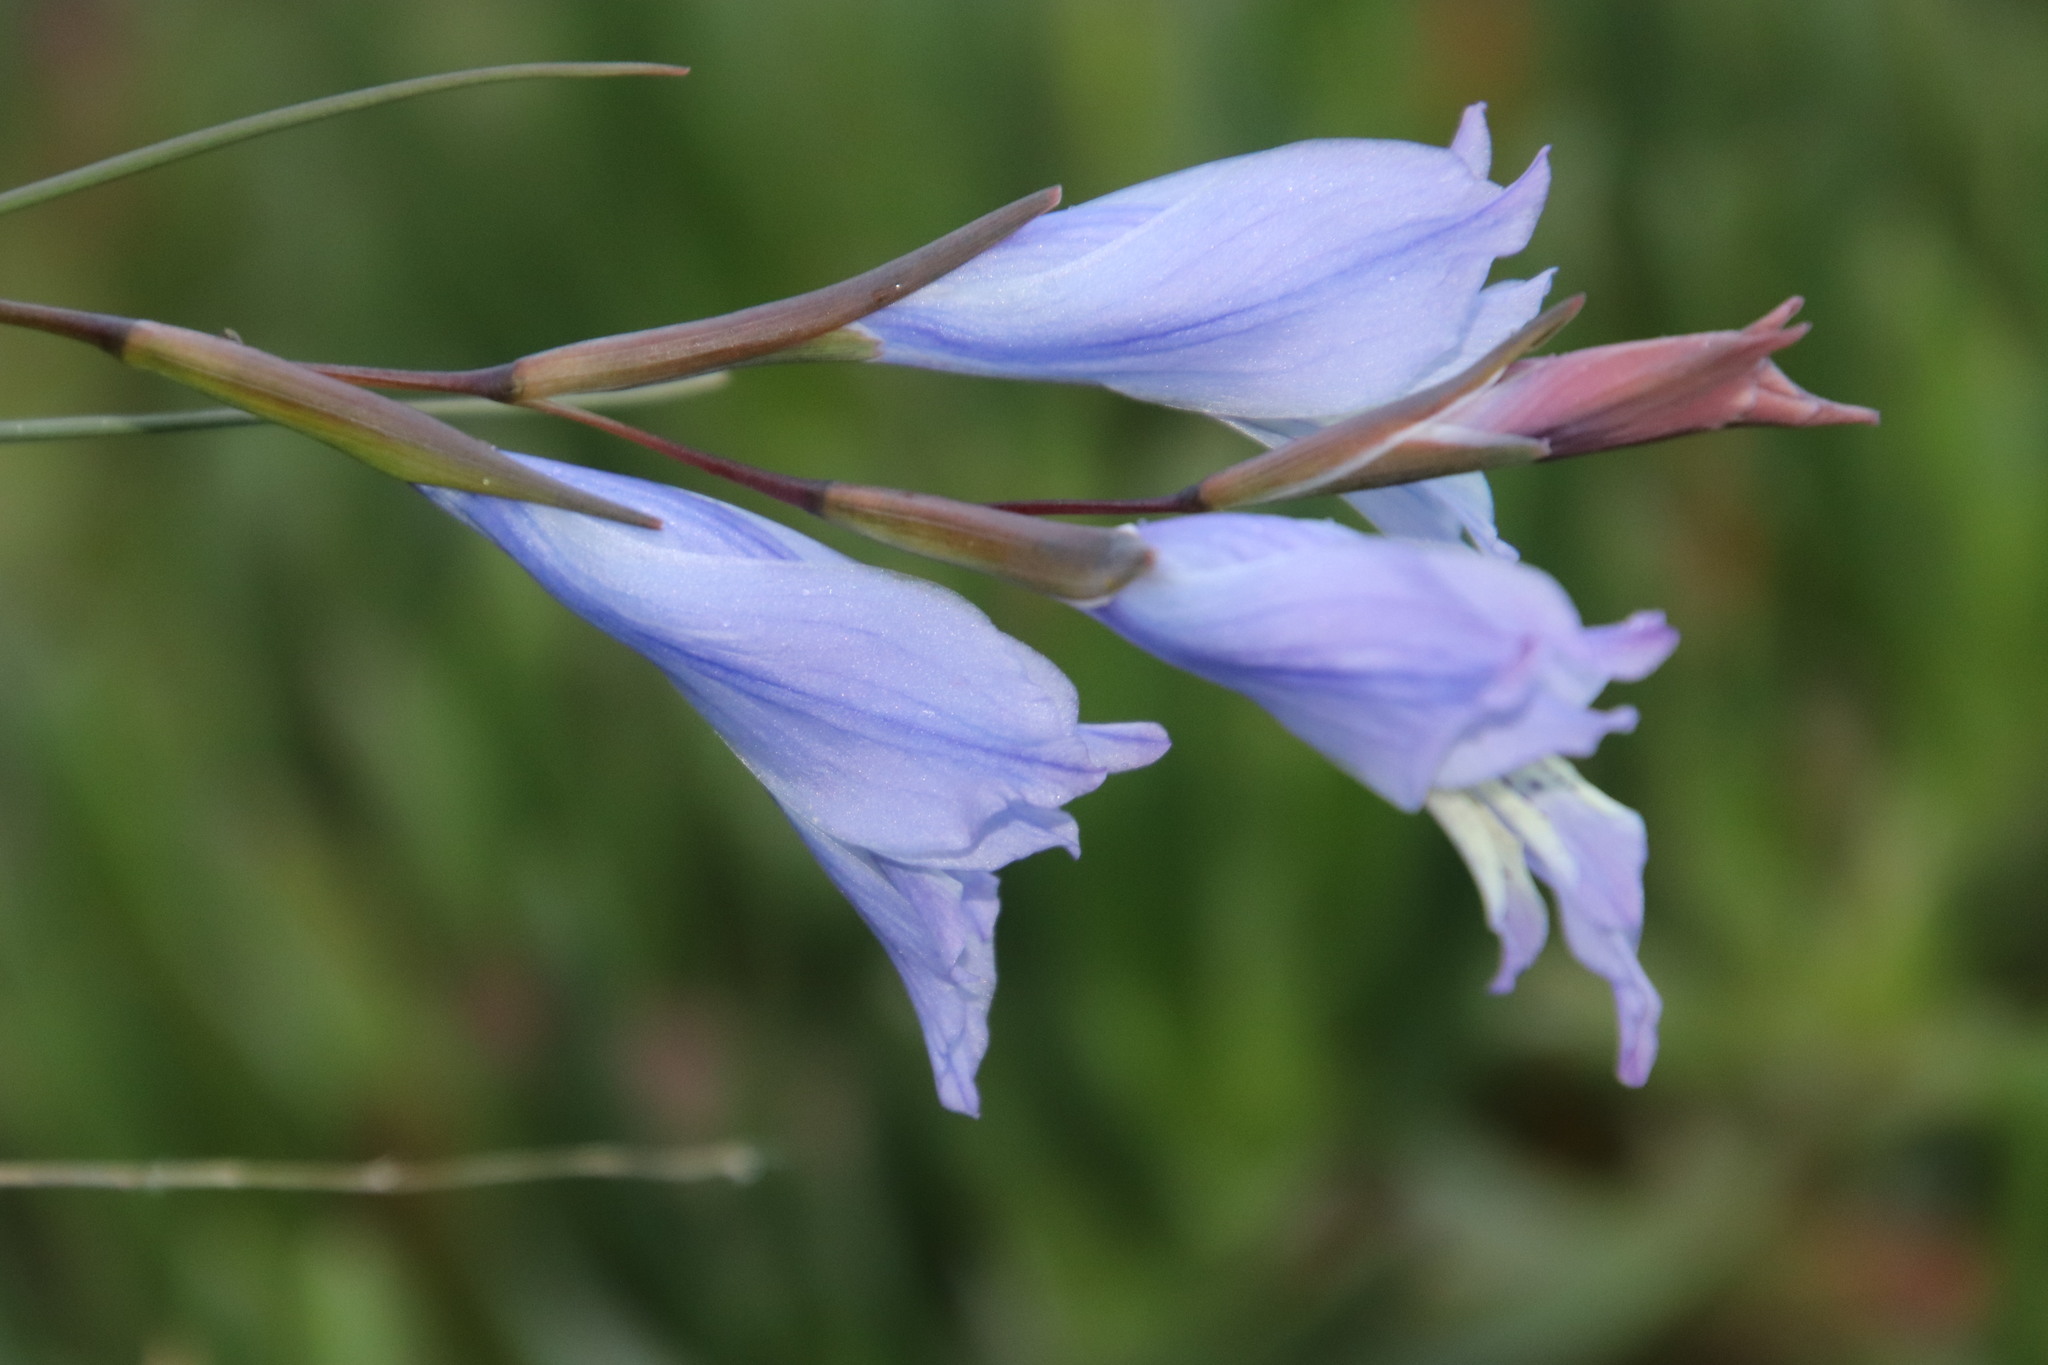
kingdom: Plantae
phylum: Tracheophyta
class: Liliopsida
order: Asparagales
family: Iridaceae
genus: Gladiolus
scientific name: Gladiolus gracilis
